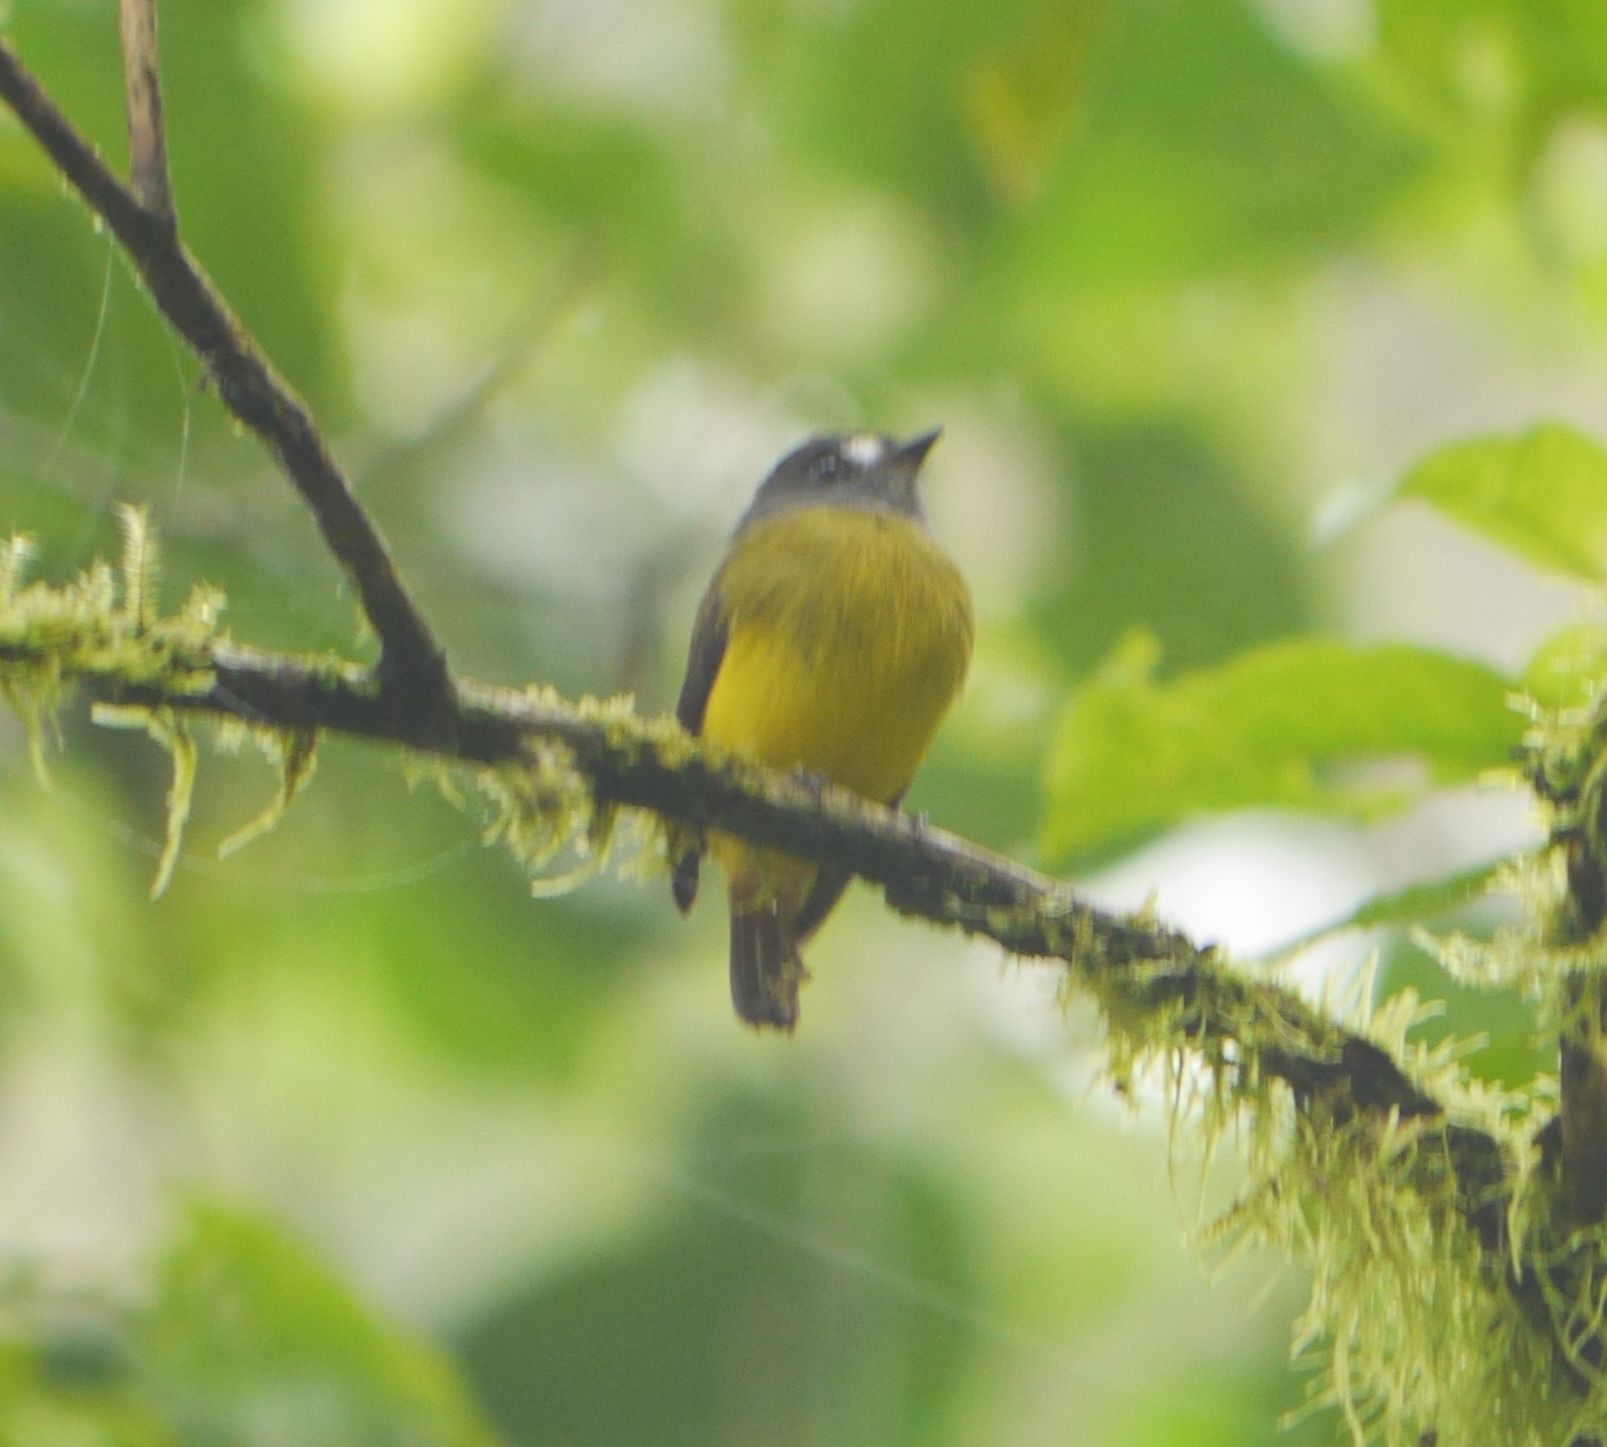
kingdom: Animalia
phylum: Chordata
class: Aves
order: Passeriformes
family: Tyrannidae
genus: Myiotriccus
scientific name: Myiotriccus ornatus
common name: Ornate flycatcher
